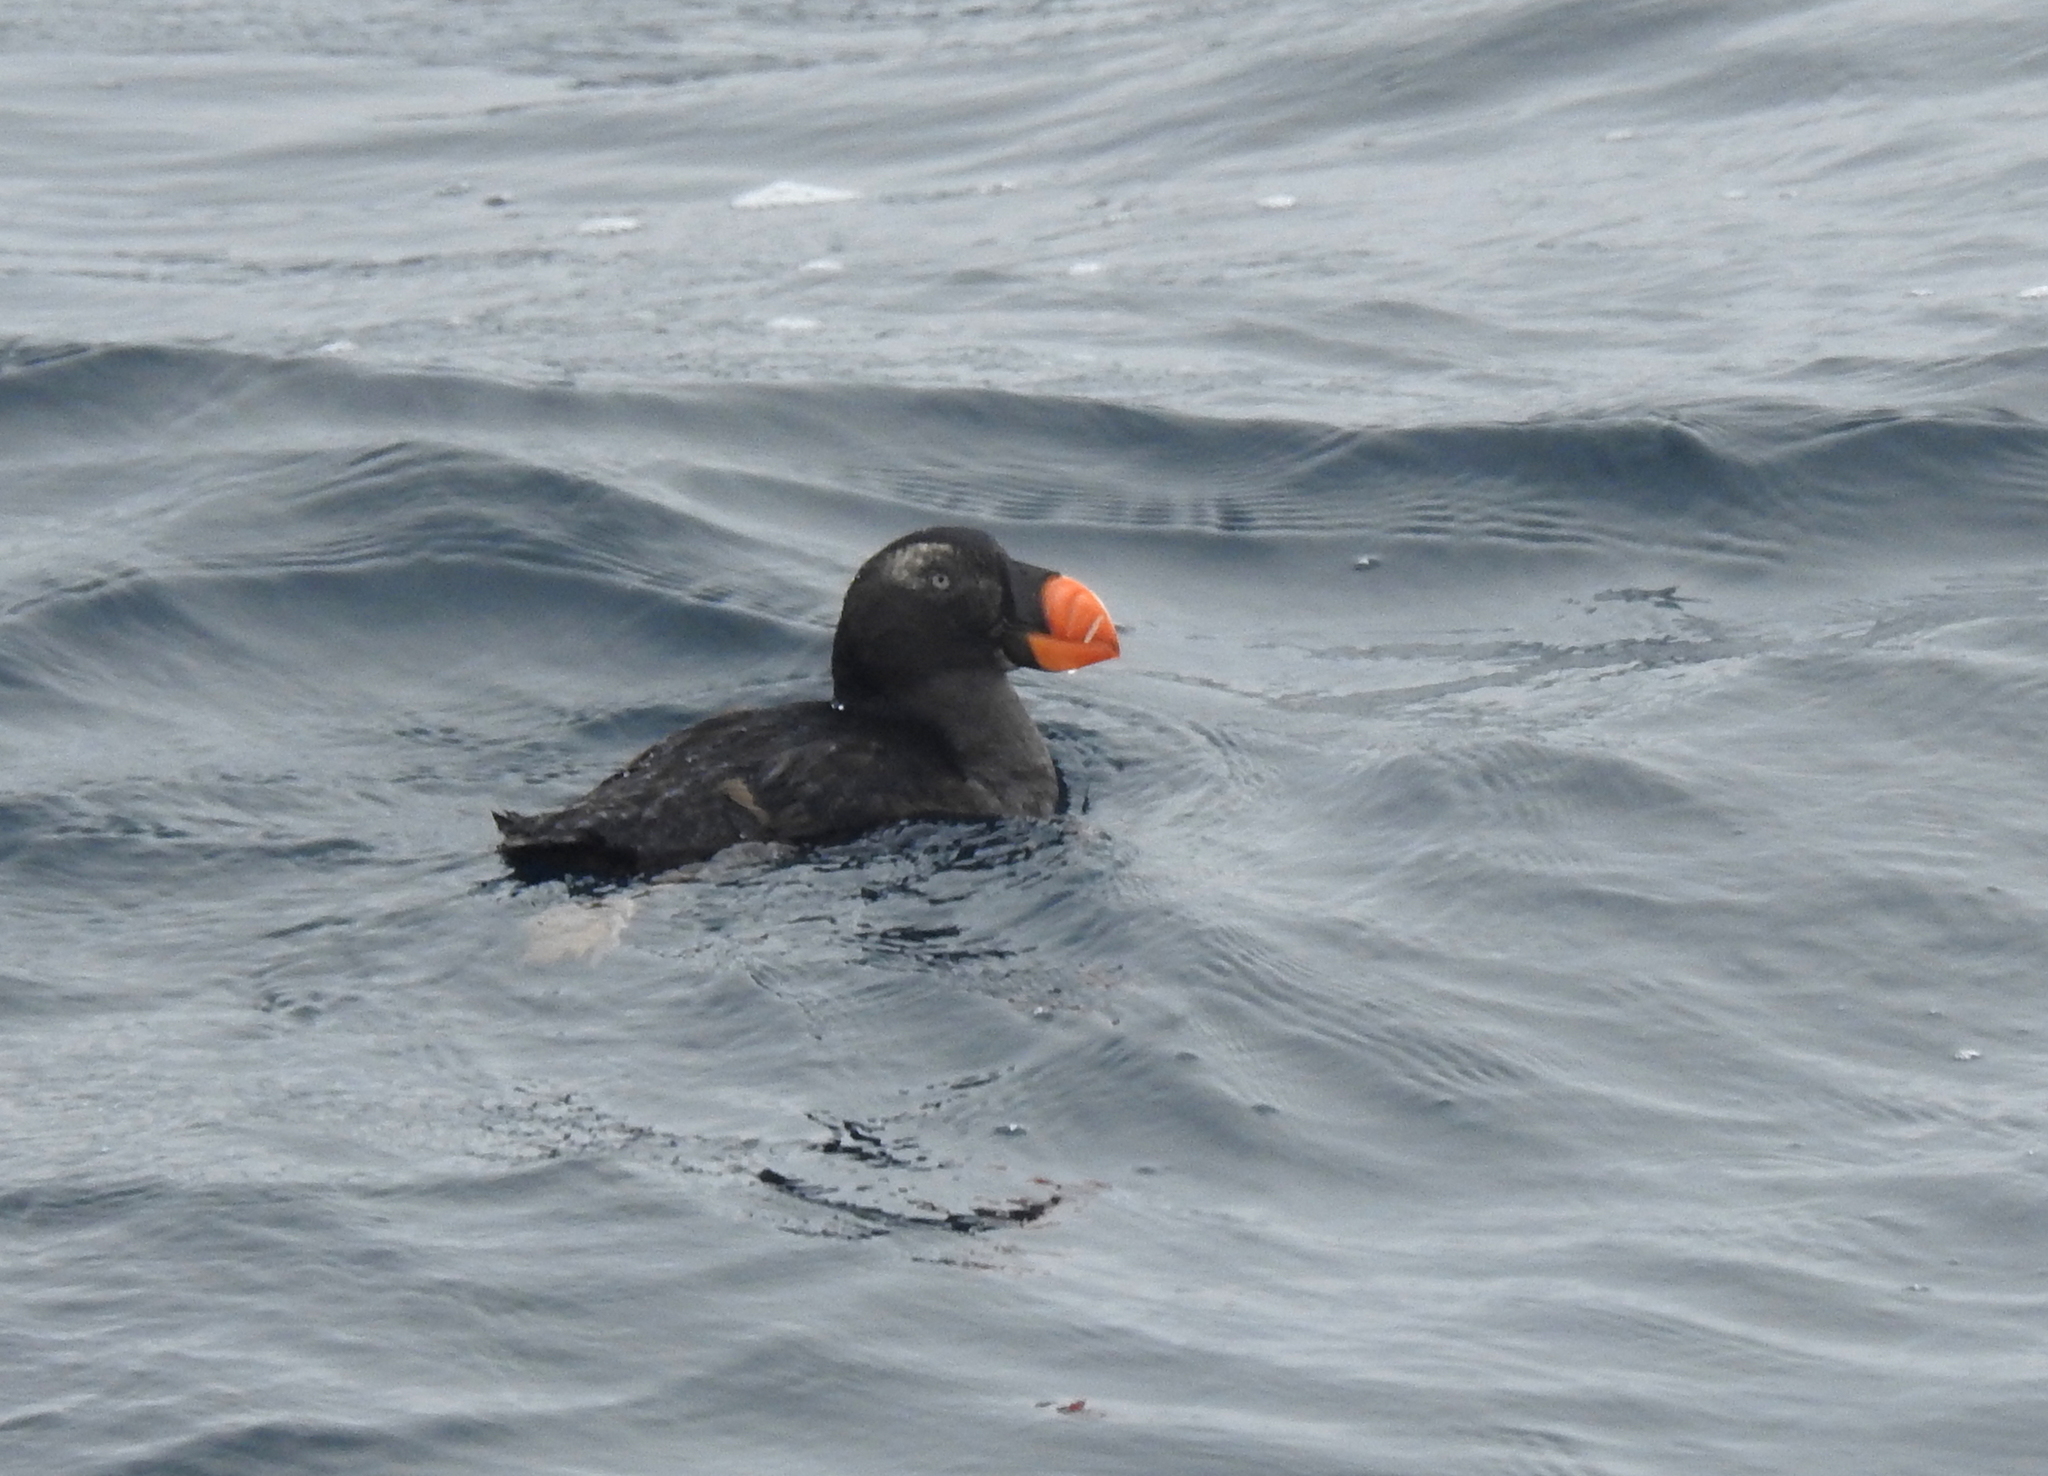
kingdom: Animalia
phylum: Chordata
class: Aves
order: Charadriiformes
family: Alcidae
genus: Fratercula
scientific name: Fratercula cirrhata
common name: Tufted puffin
